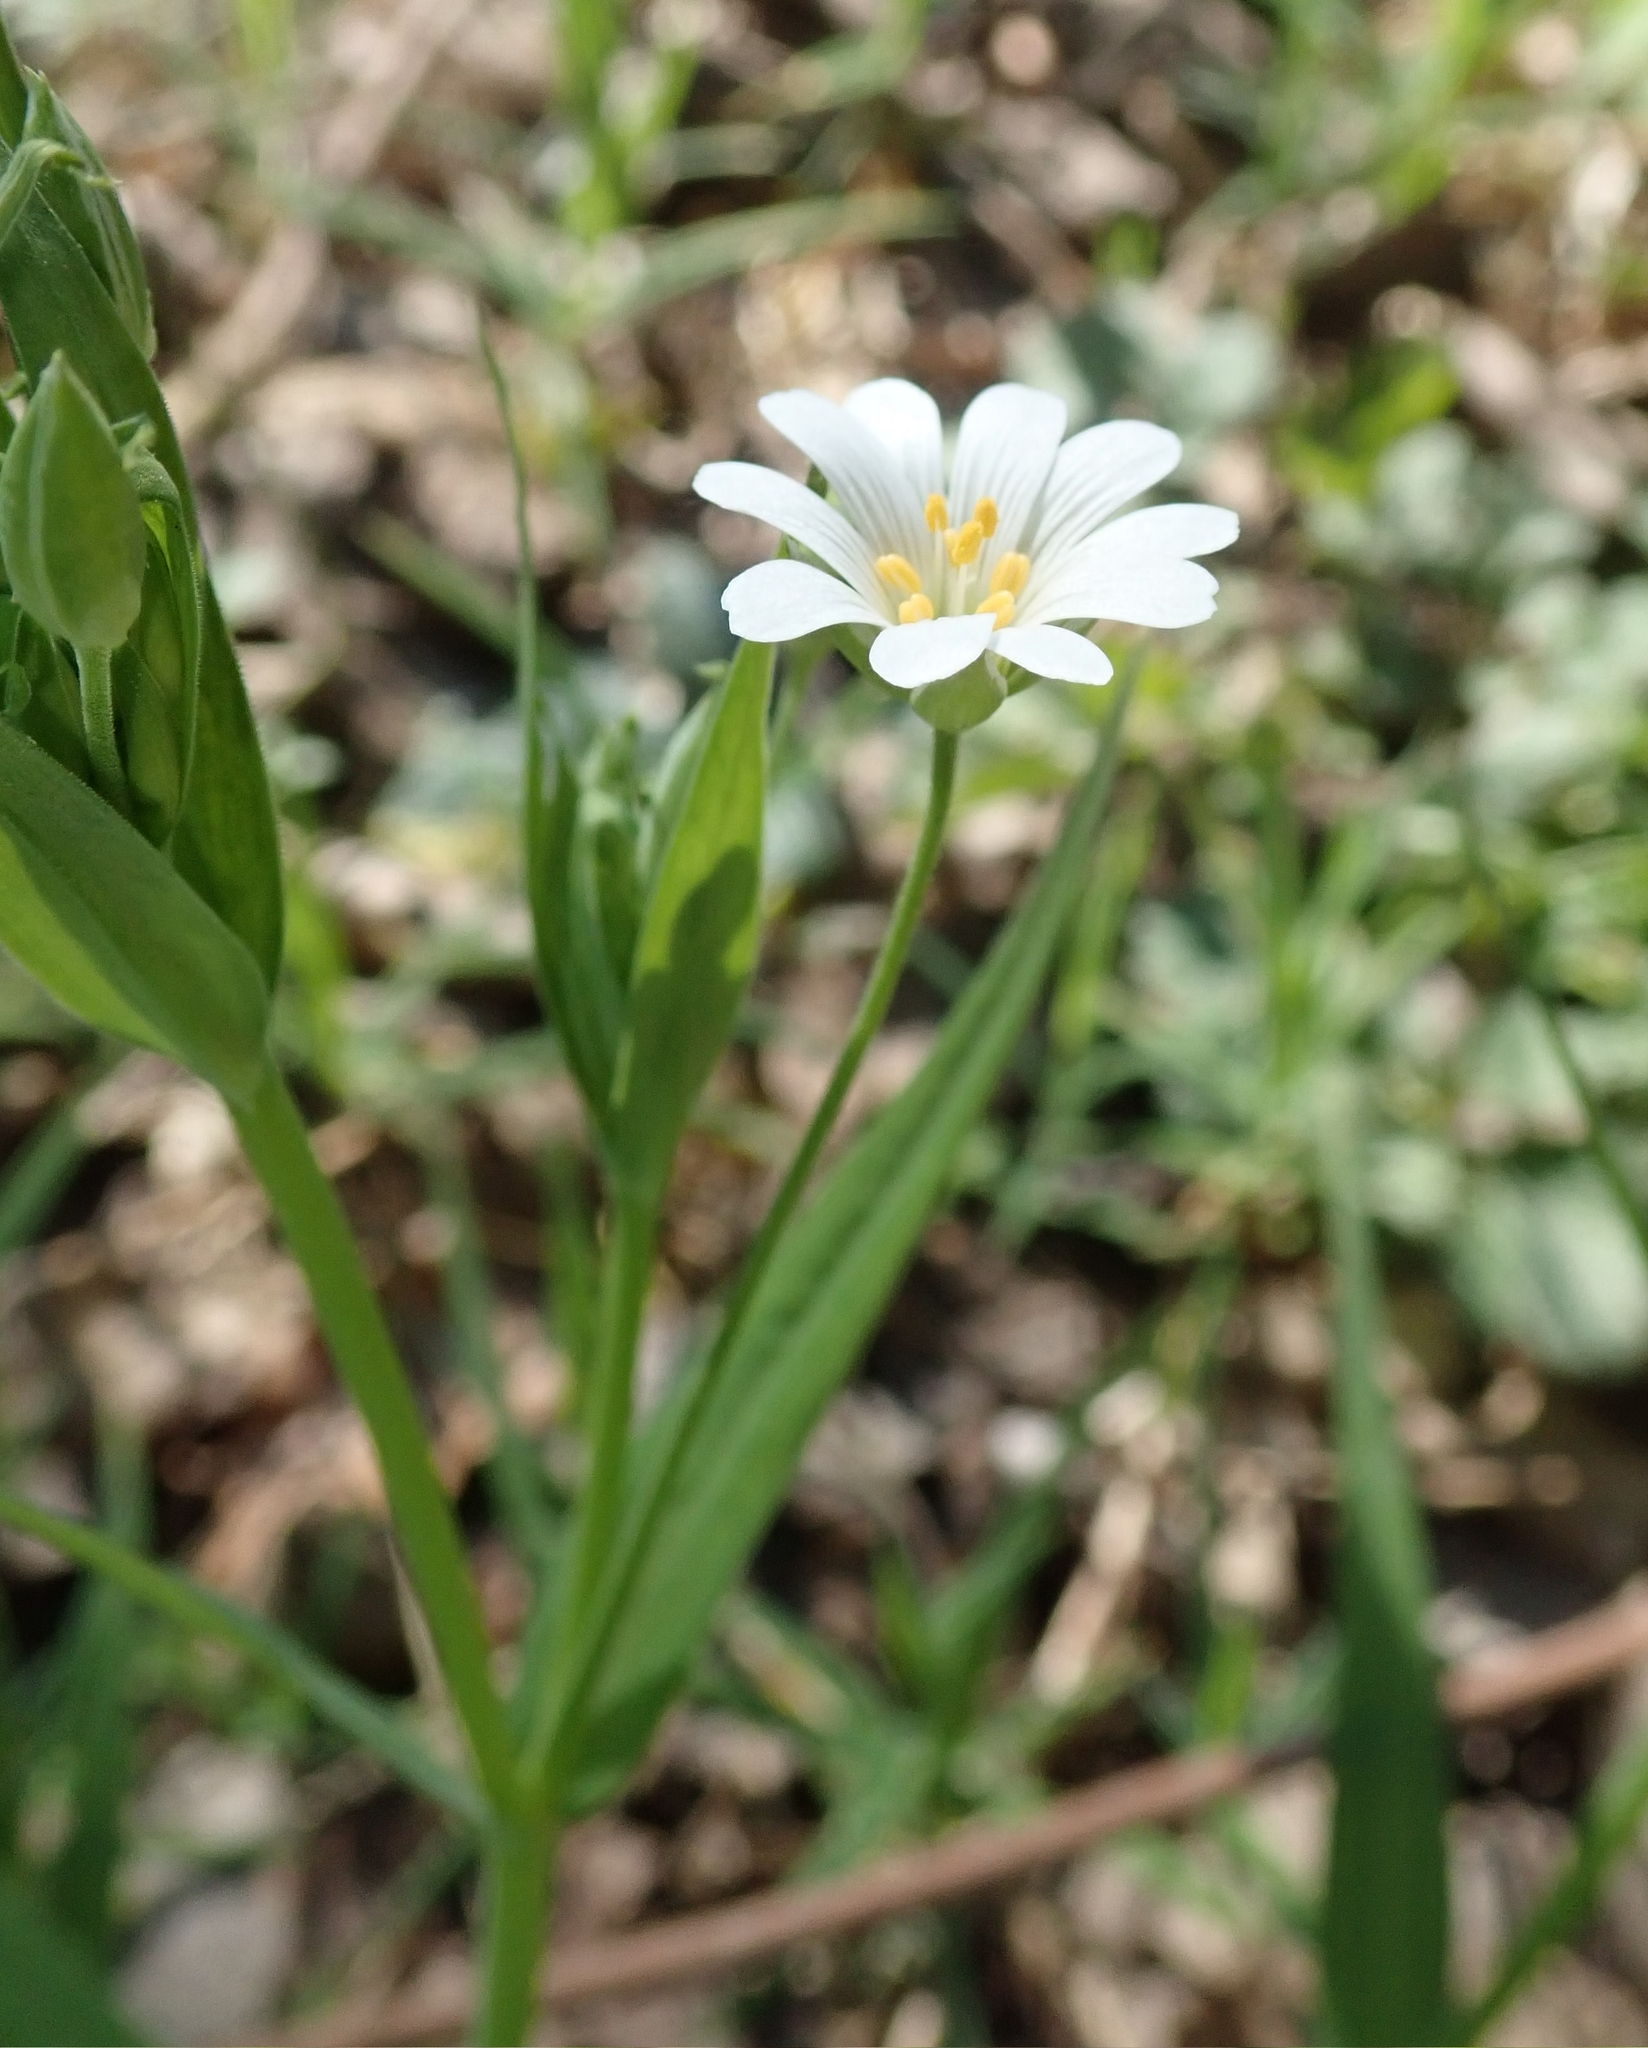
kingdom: Plantae
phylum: Tracheophyta
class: Magnoliopsida
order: Caryophyllales
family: Caryophyllaceae
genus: Rabelera
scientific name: Rabelera holostea
